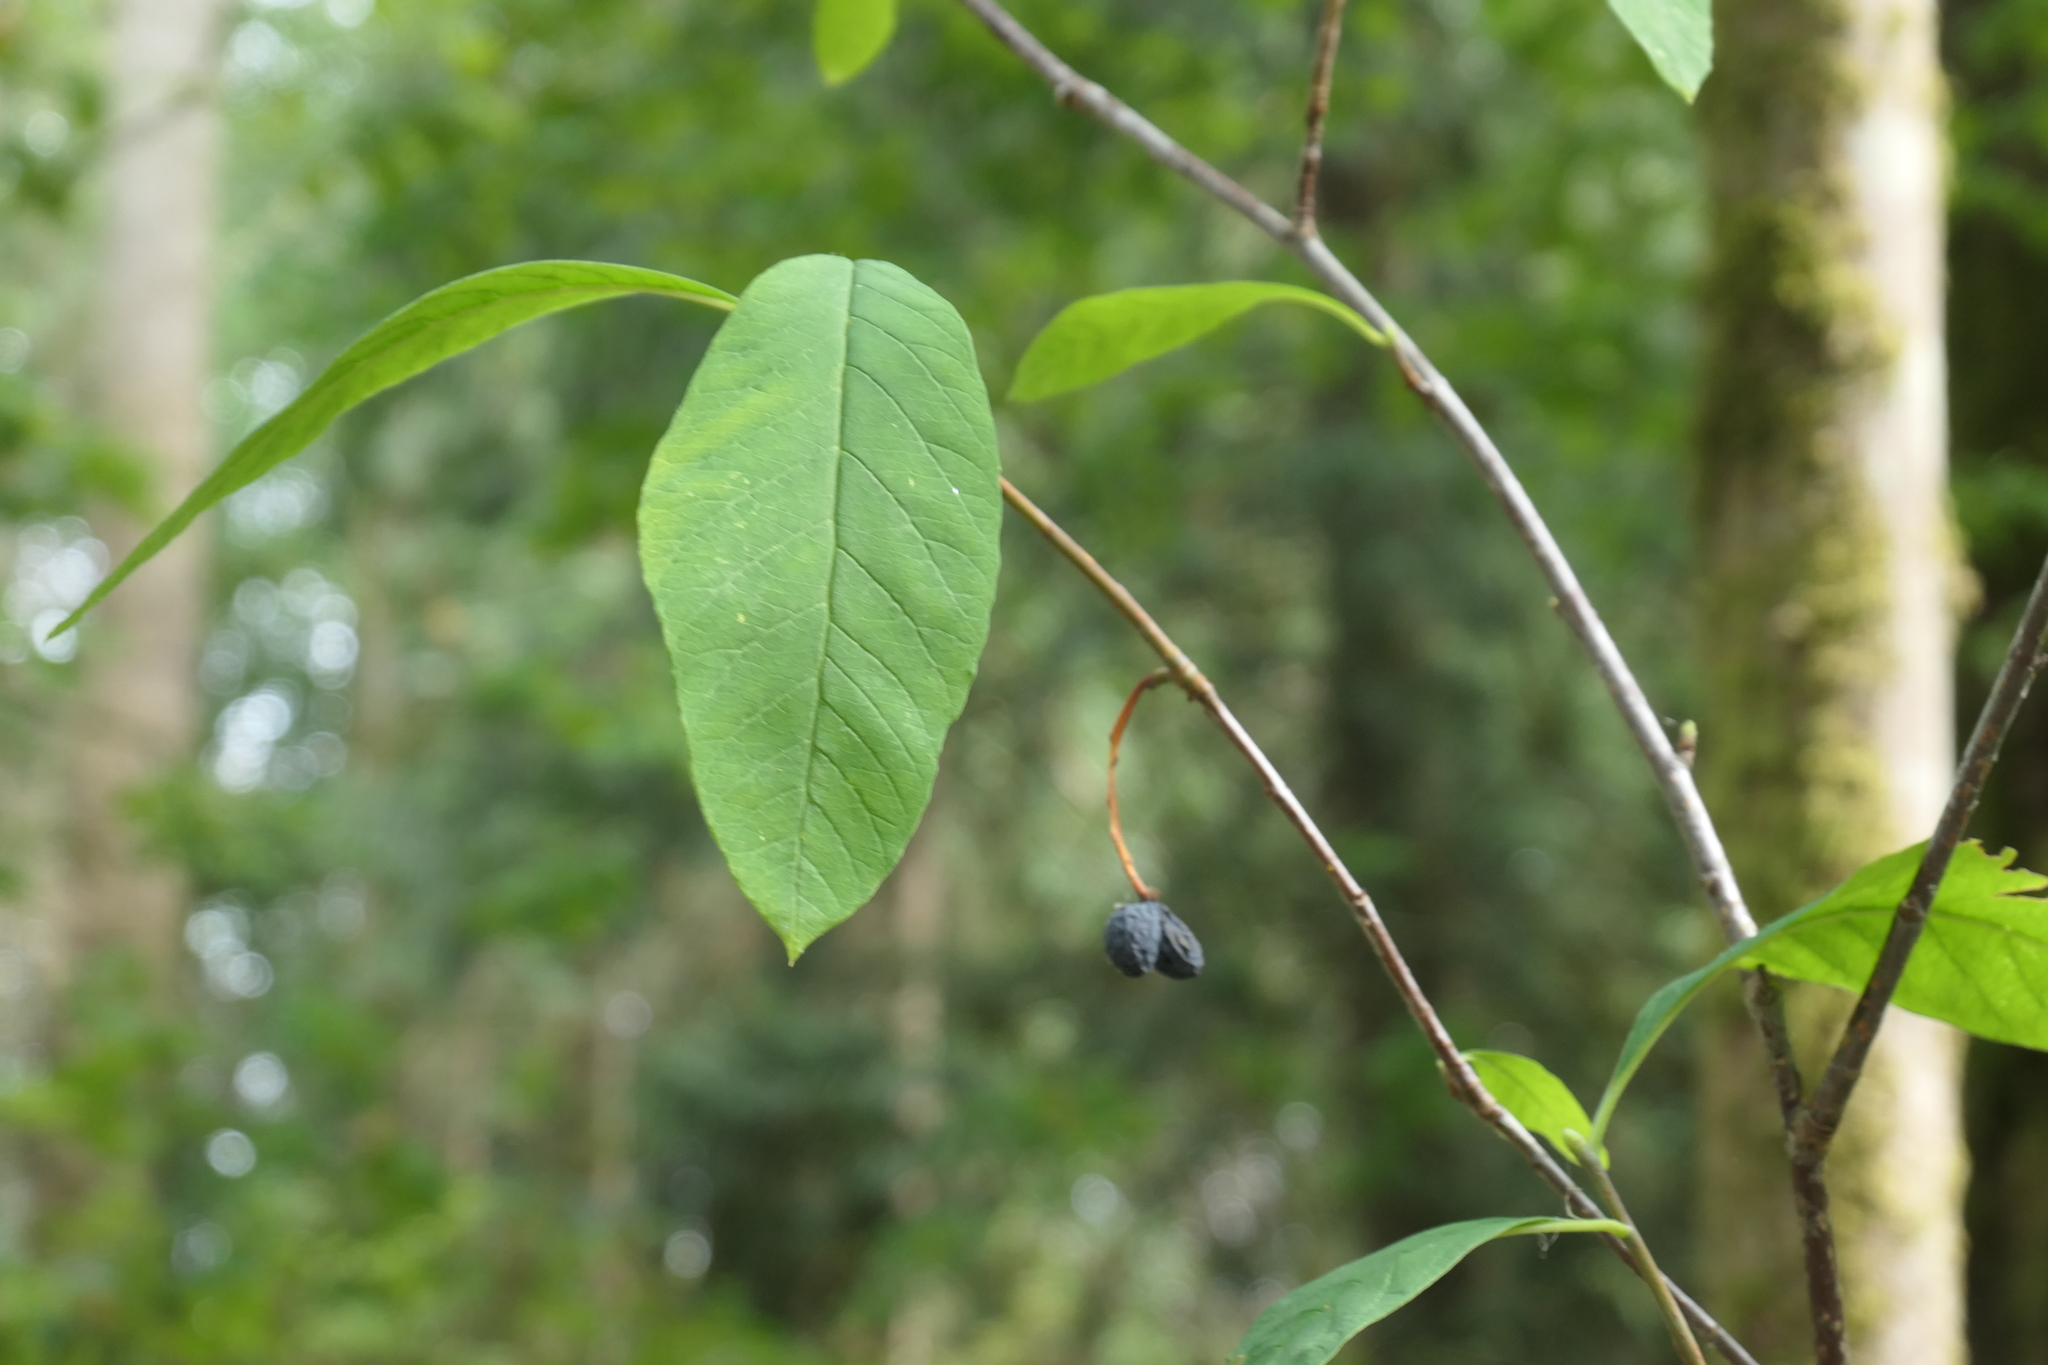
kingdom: Plantae
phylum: Tracheophyta
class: Magnoliopsida
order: Rosales
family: Rosaceae
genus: Oemleria
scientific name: Oemleria cerasiformis
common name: Osoberry
